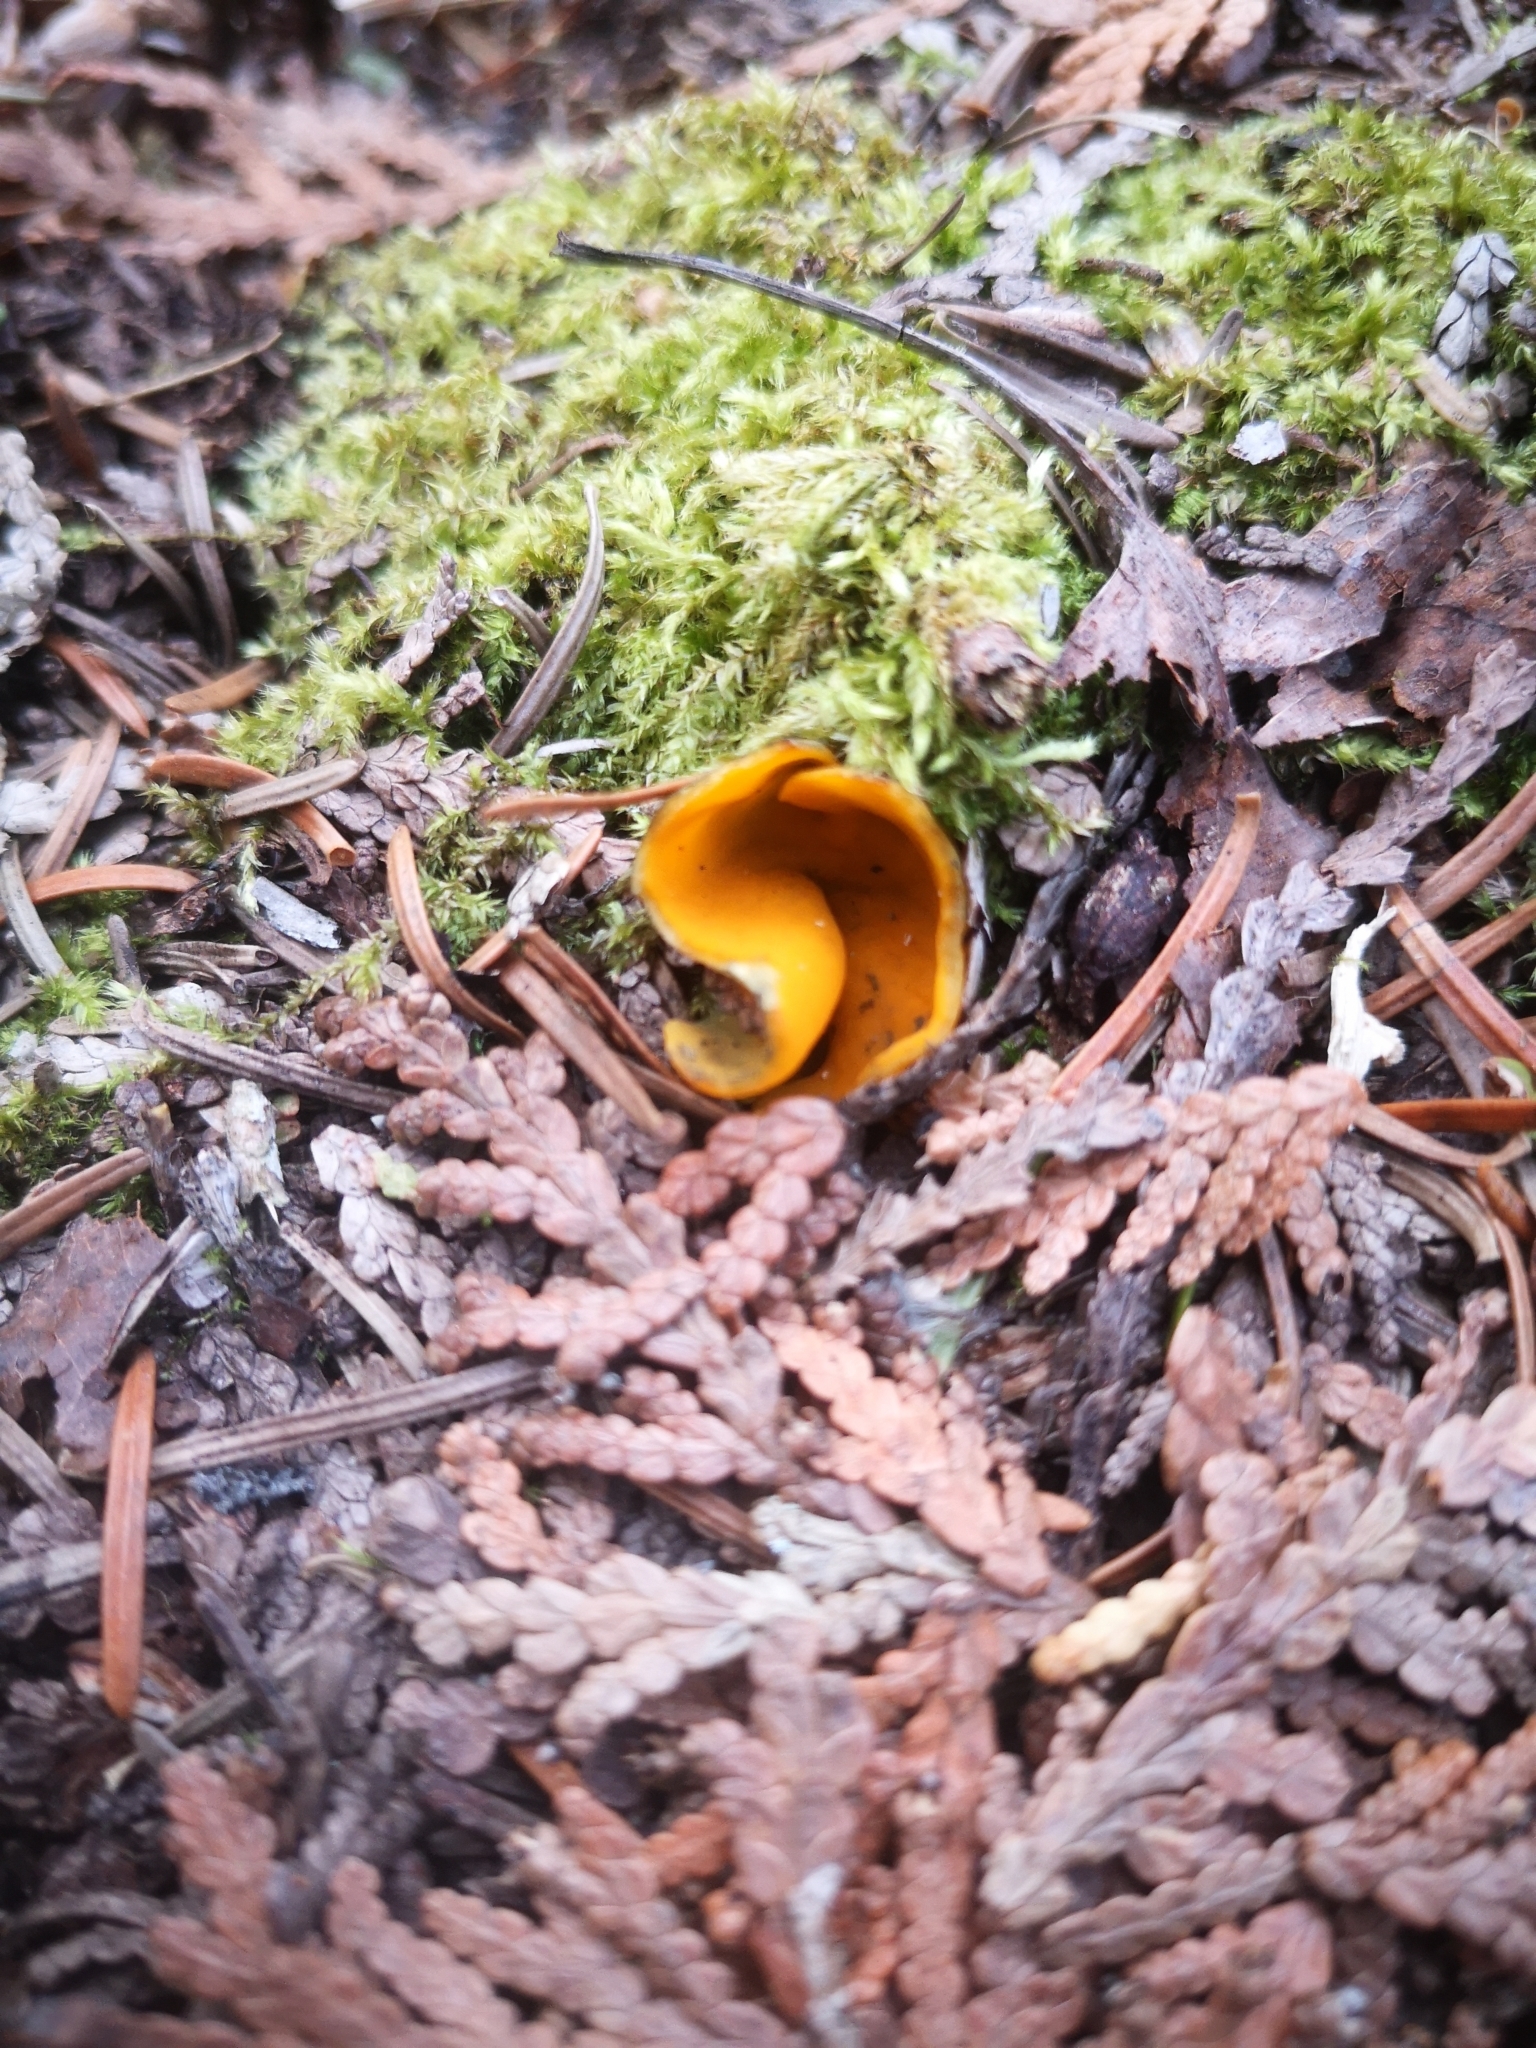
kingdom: Fungi
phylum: Ascomycota
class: Pezizomycetes
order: Pezizales
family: Caloscyphaceae
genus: Caloscypha
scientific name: Caloscypha fulgens
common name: Golden cup
